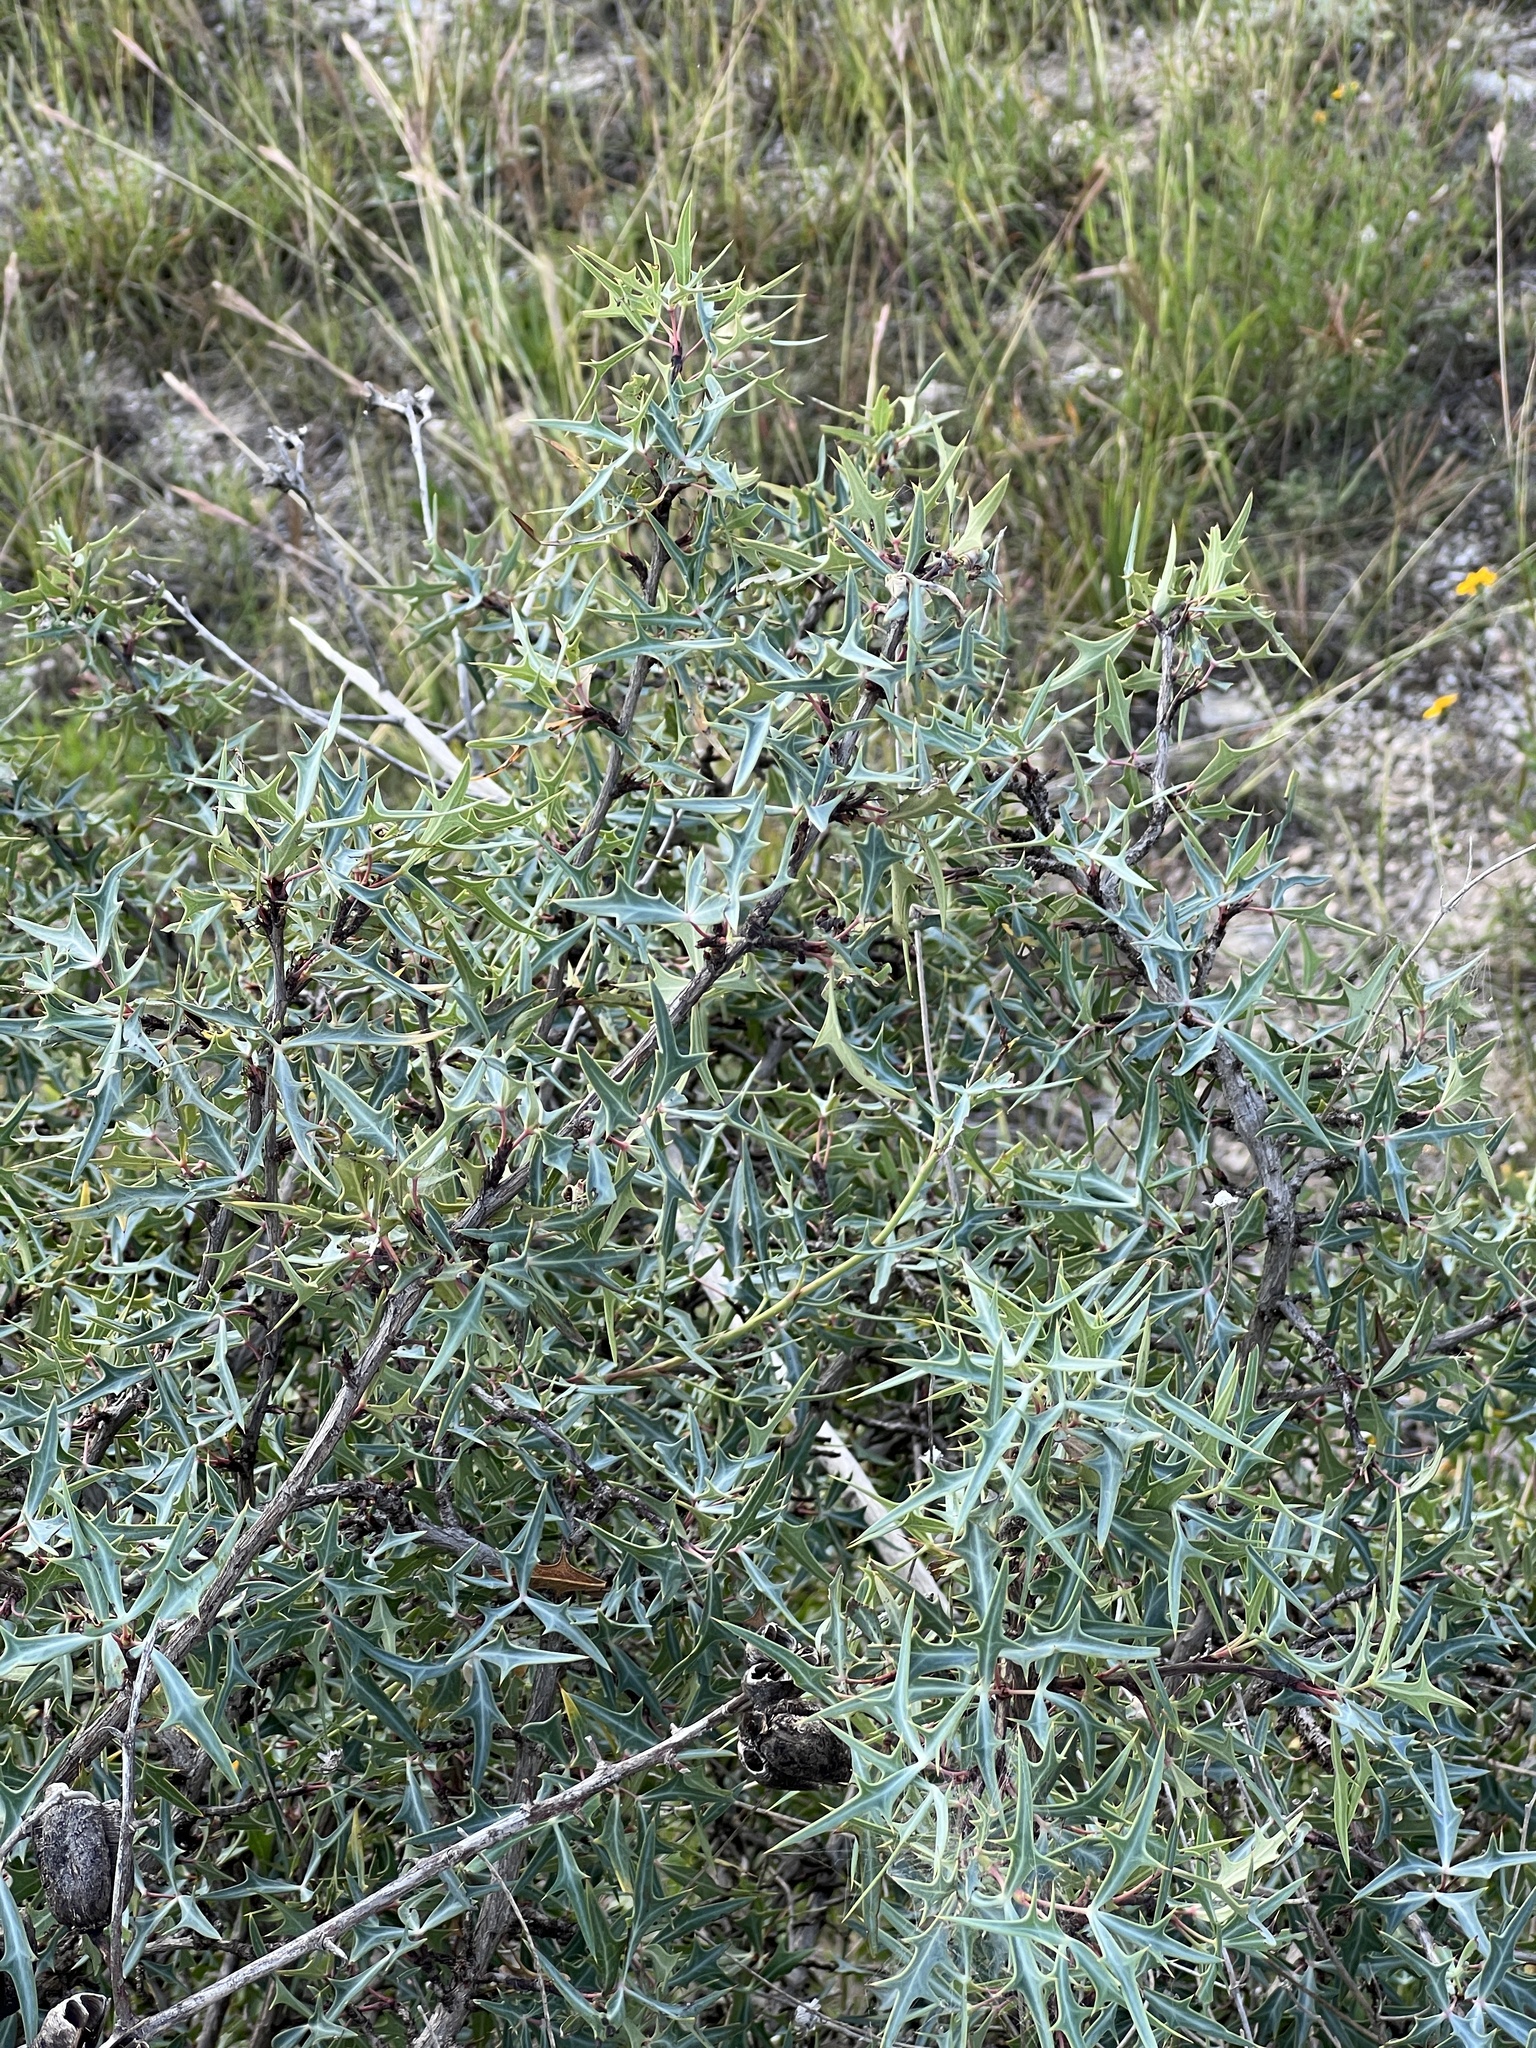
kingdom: Plantae
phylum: Tracheophyta
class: Magnoliopsida
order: Ranunculales
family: Berberidaceae
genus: Alloberberis
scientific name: Alloberberis trifoliolata
